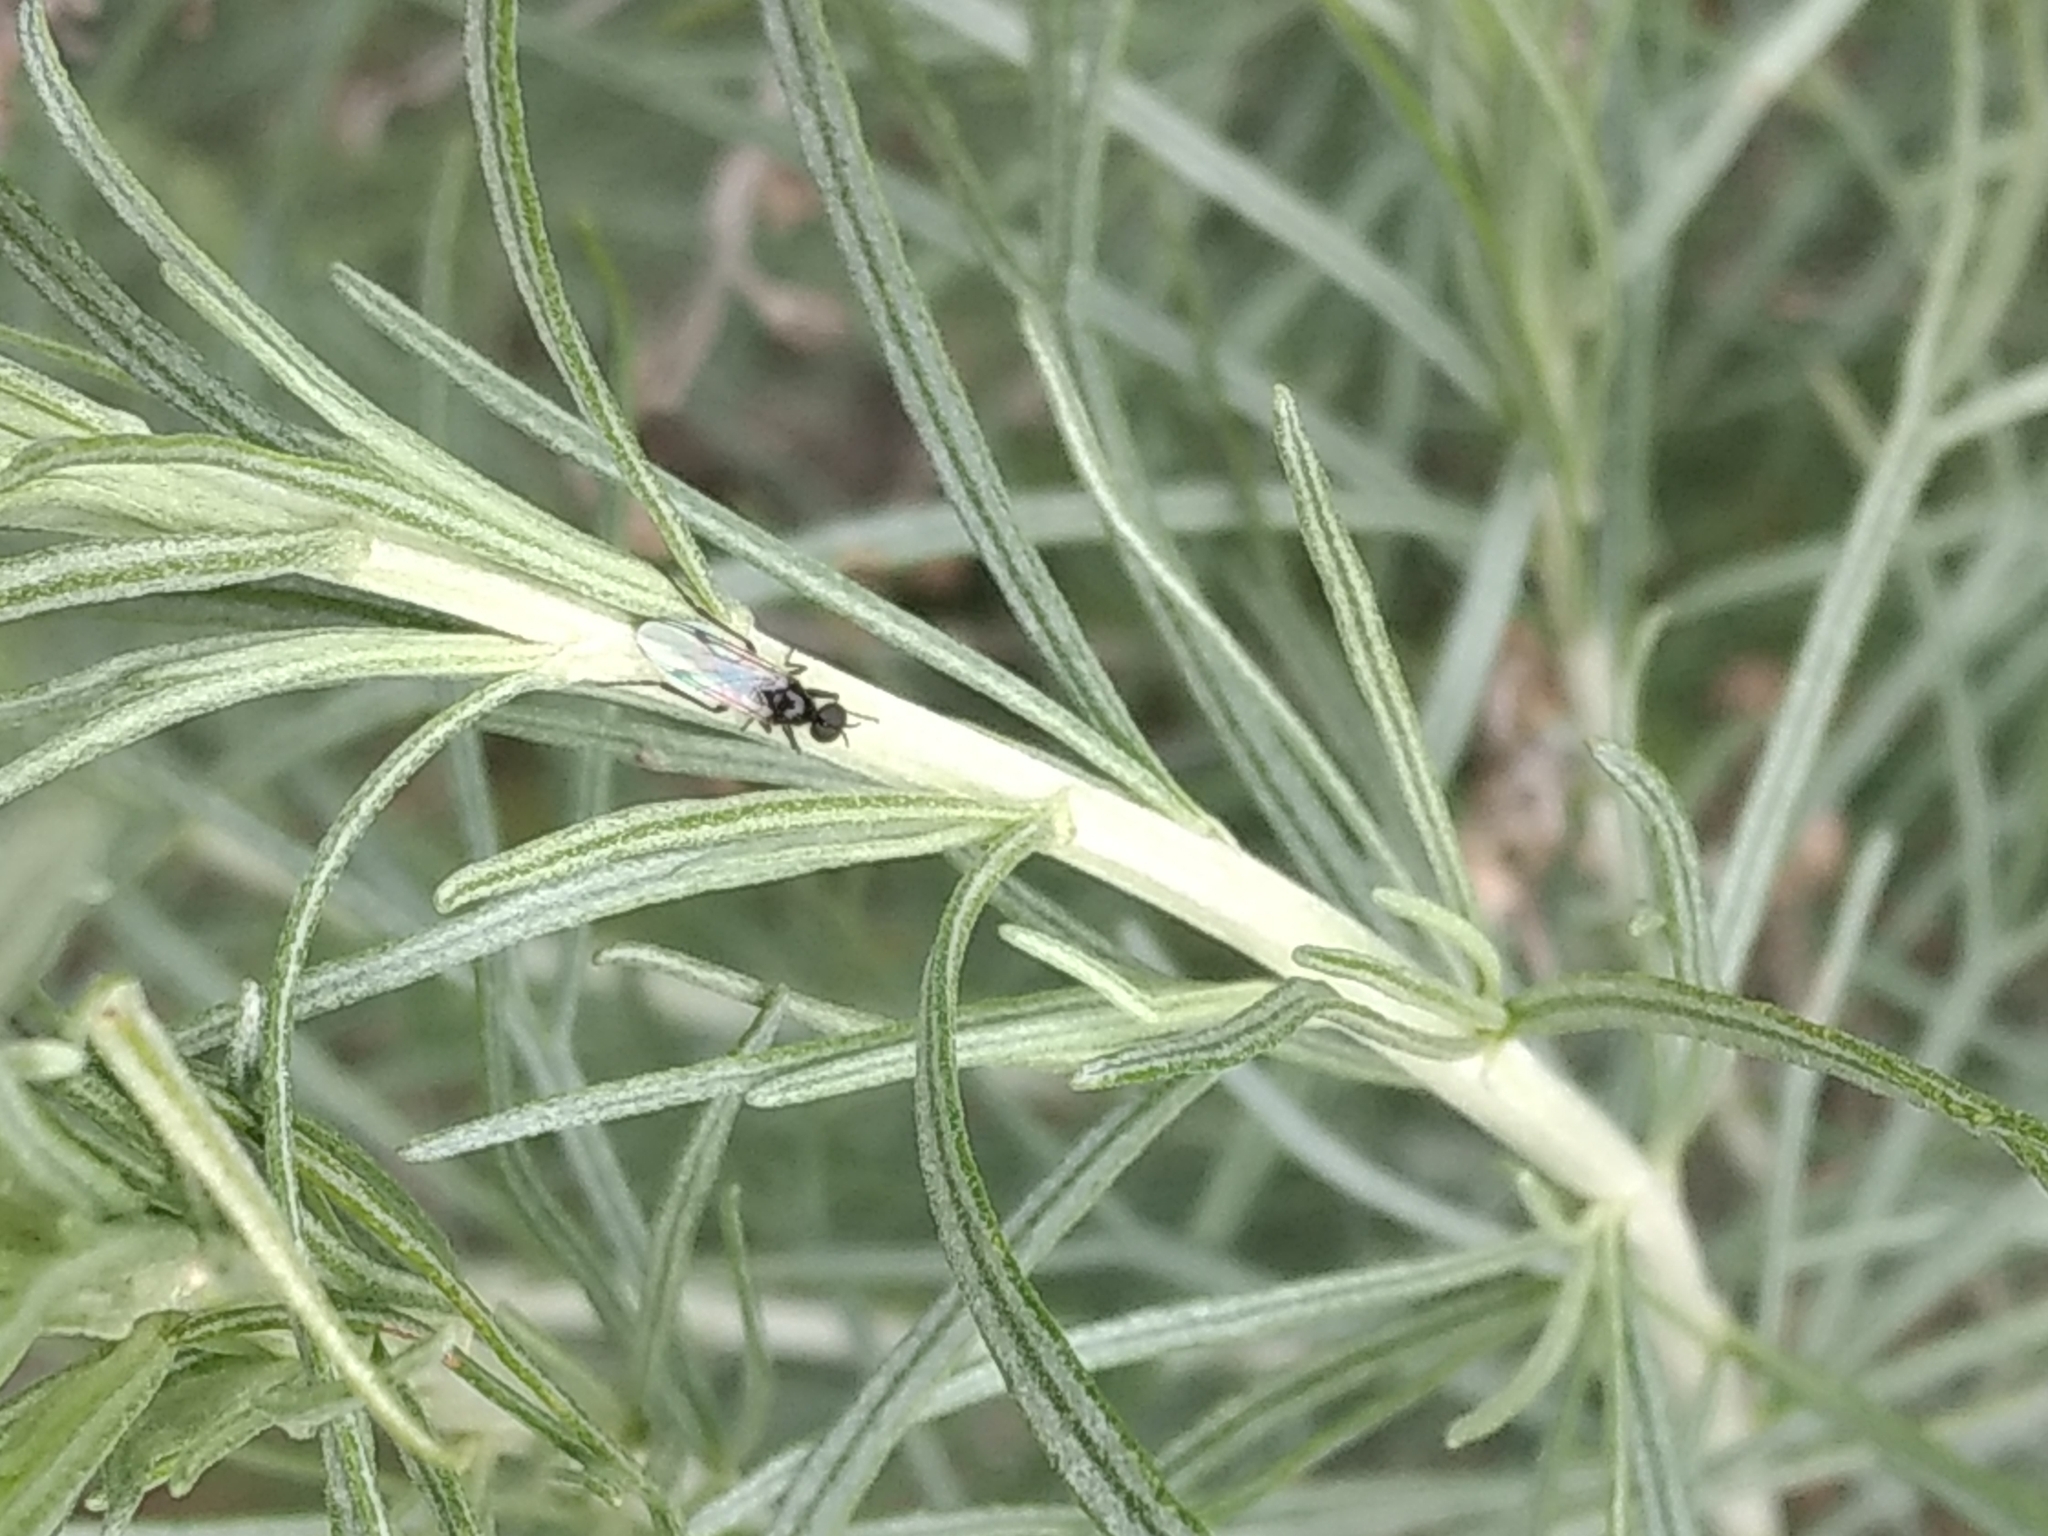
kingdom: Animalia
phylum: Arthropoda
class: Insecta
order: Diptera
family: Bibionidae
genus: Bibiodes
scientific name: Bibiodes halteralis
